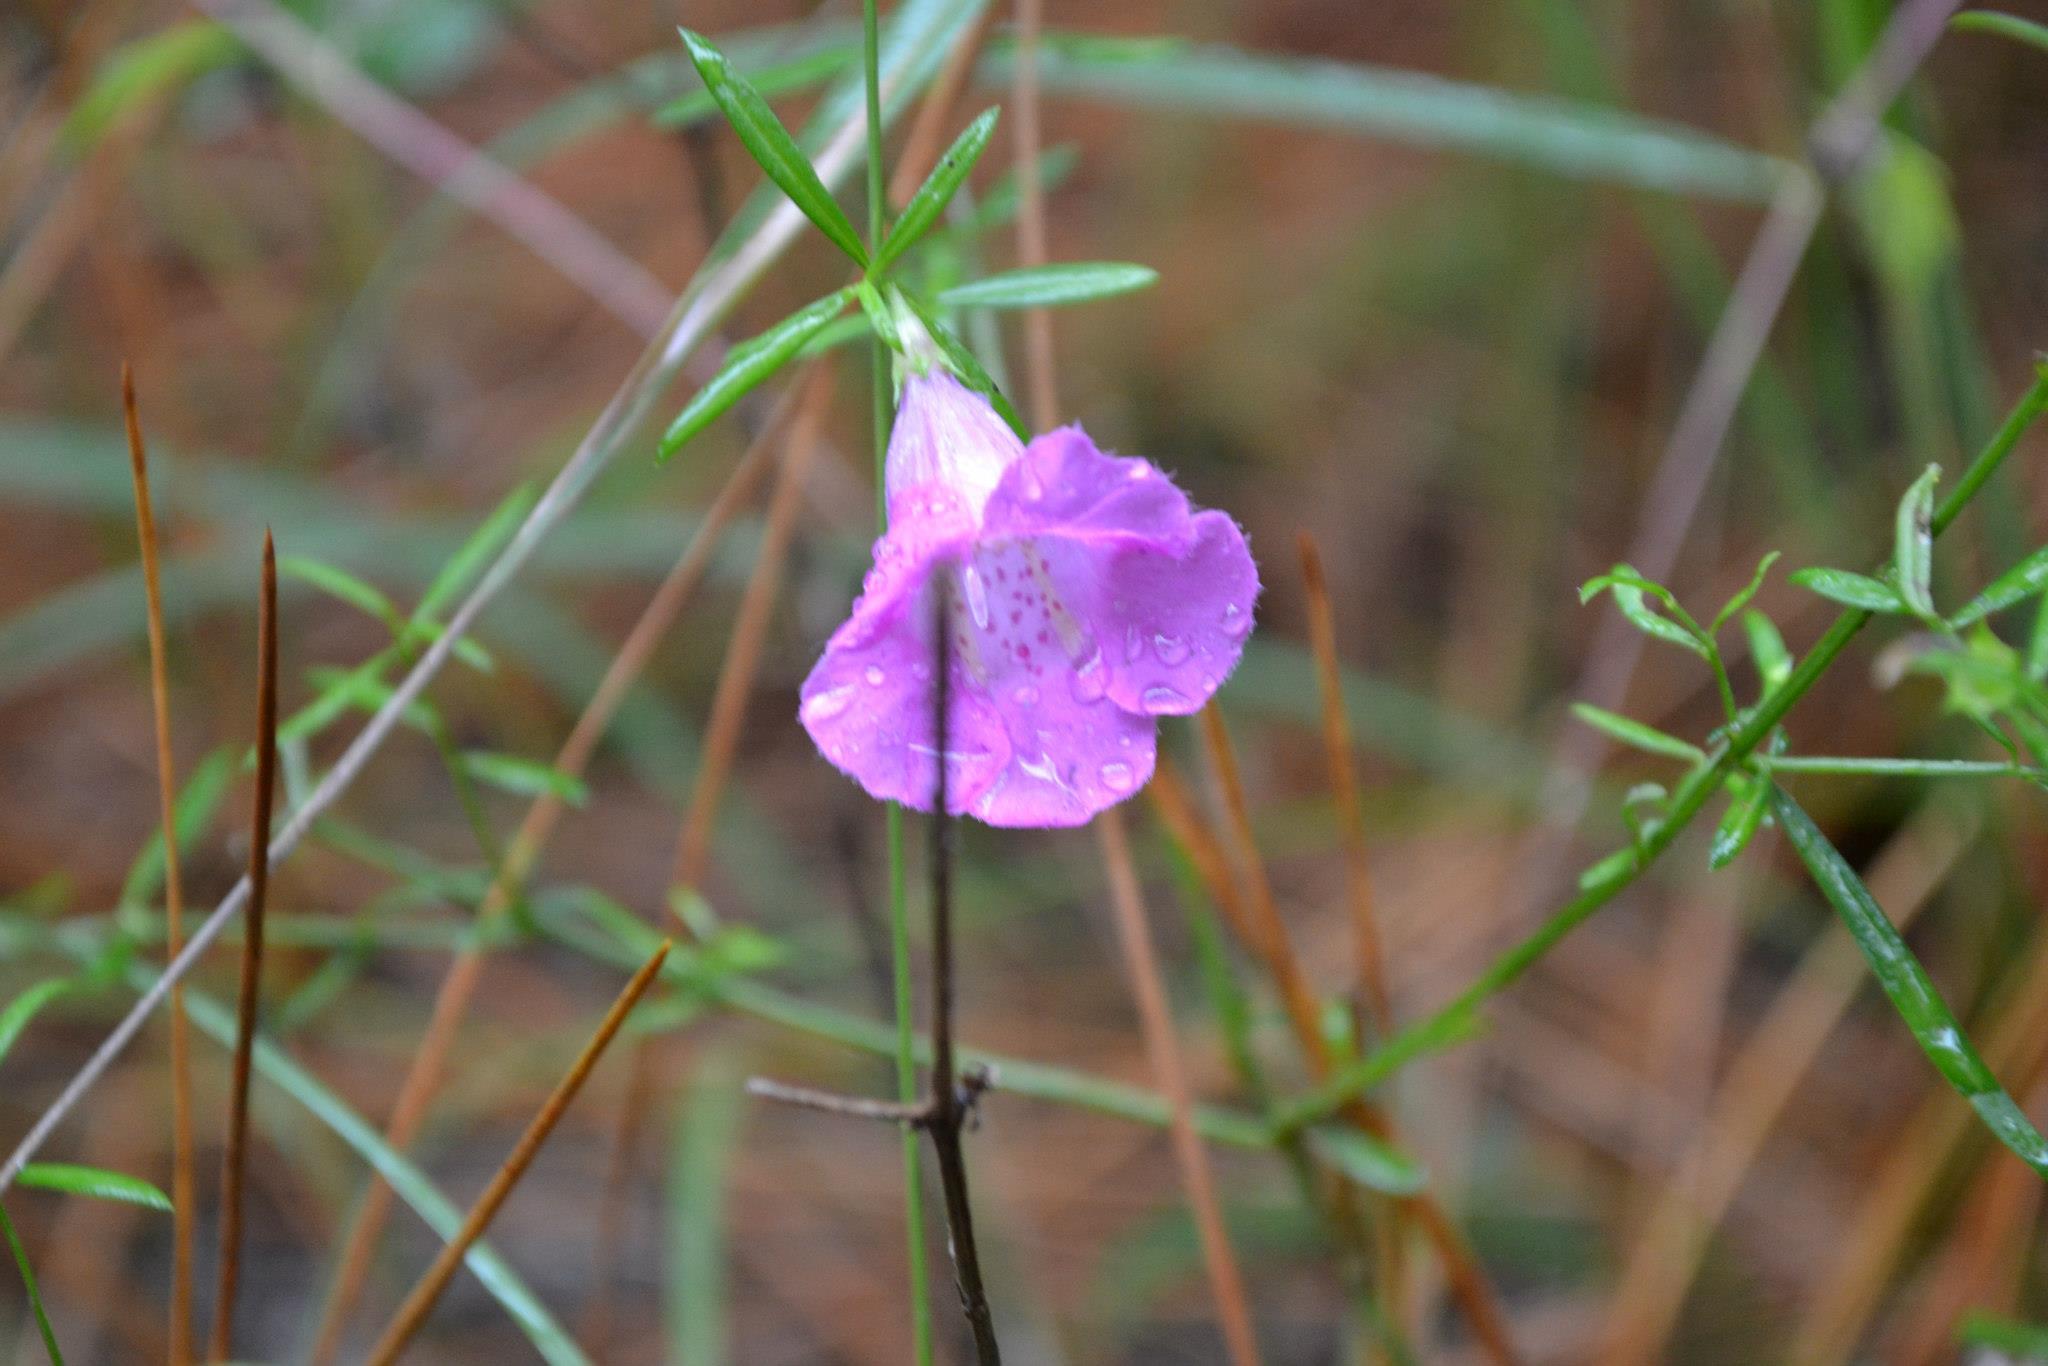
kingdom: Plantae
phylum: Tracheophyta
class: Magnoliopsida
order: Lamiales
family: Orobanchaceae
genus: Agalinis
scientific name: Agalinis purpurea
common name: Purple false foxglove
